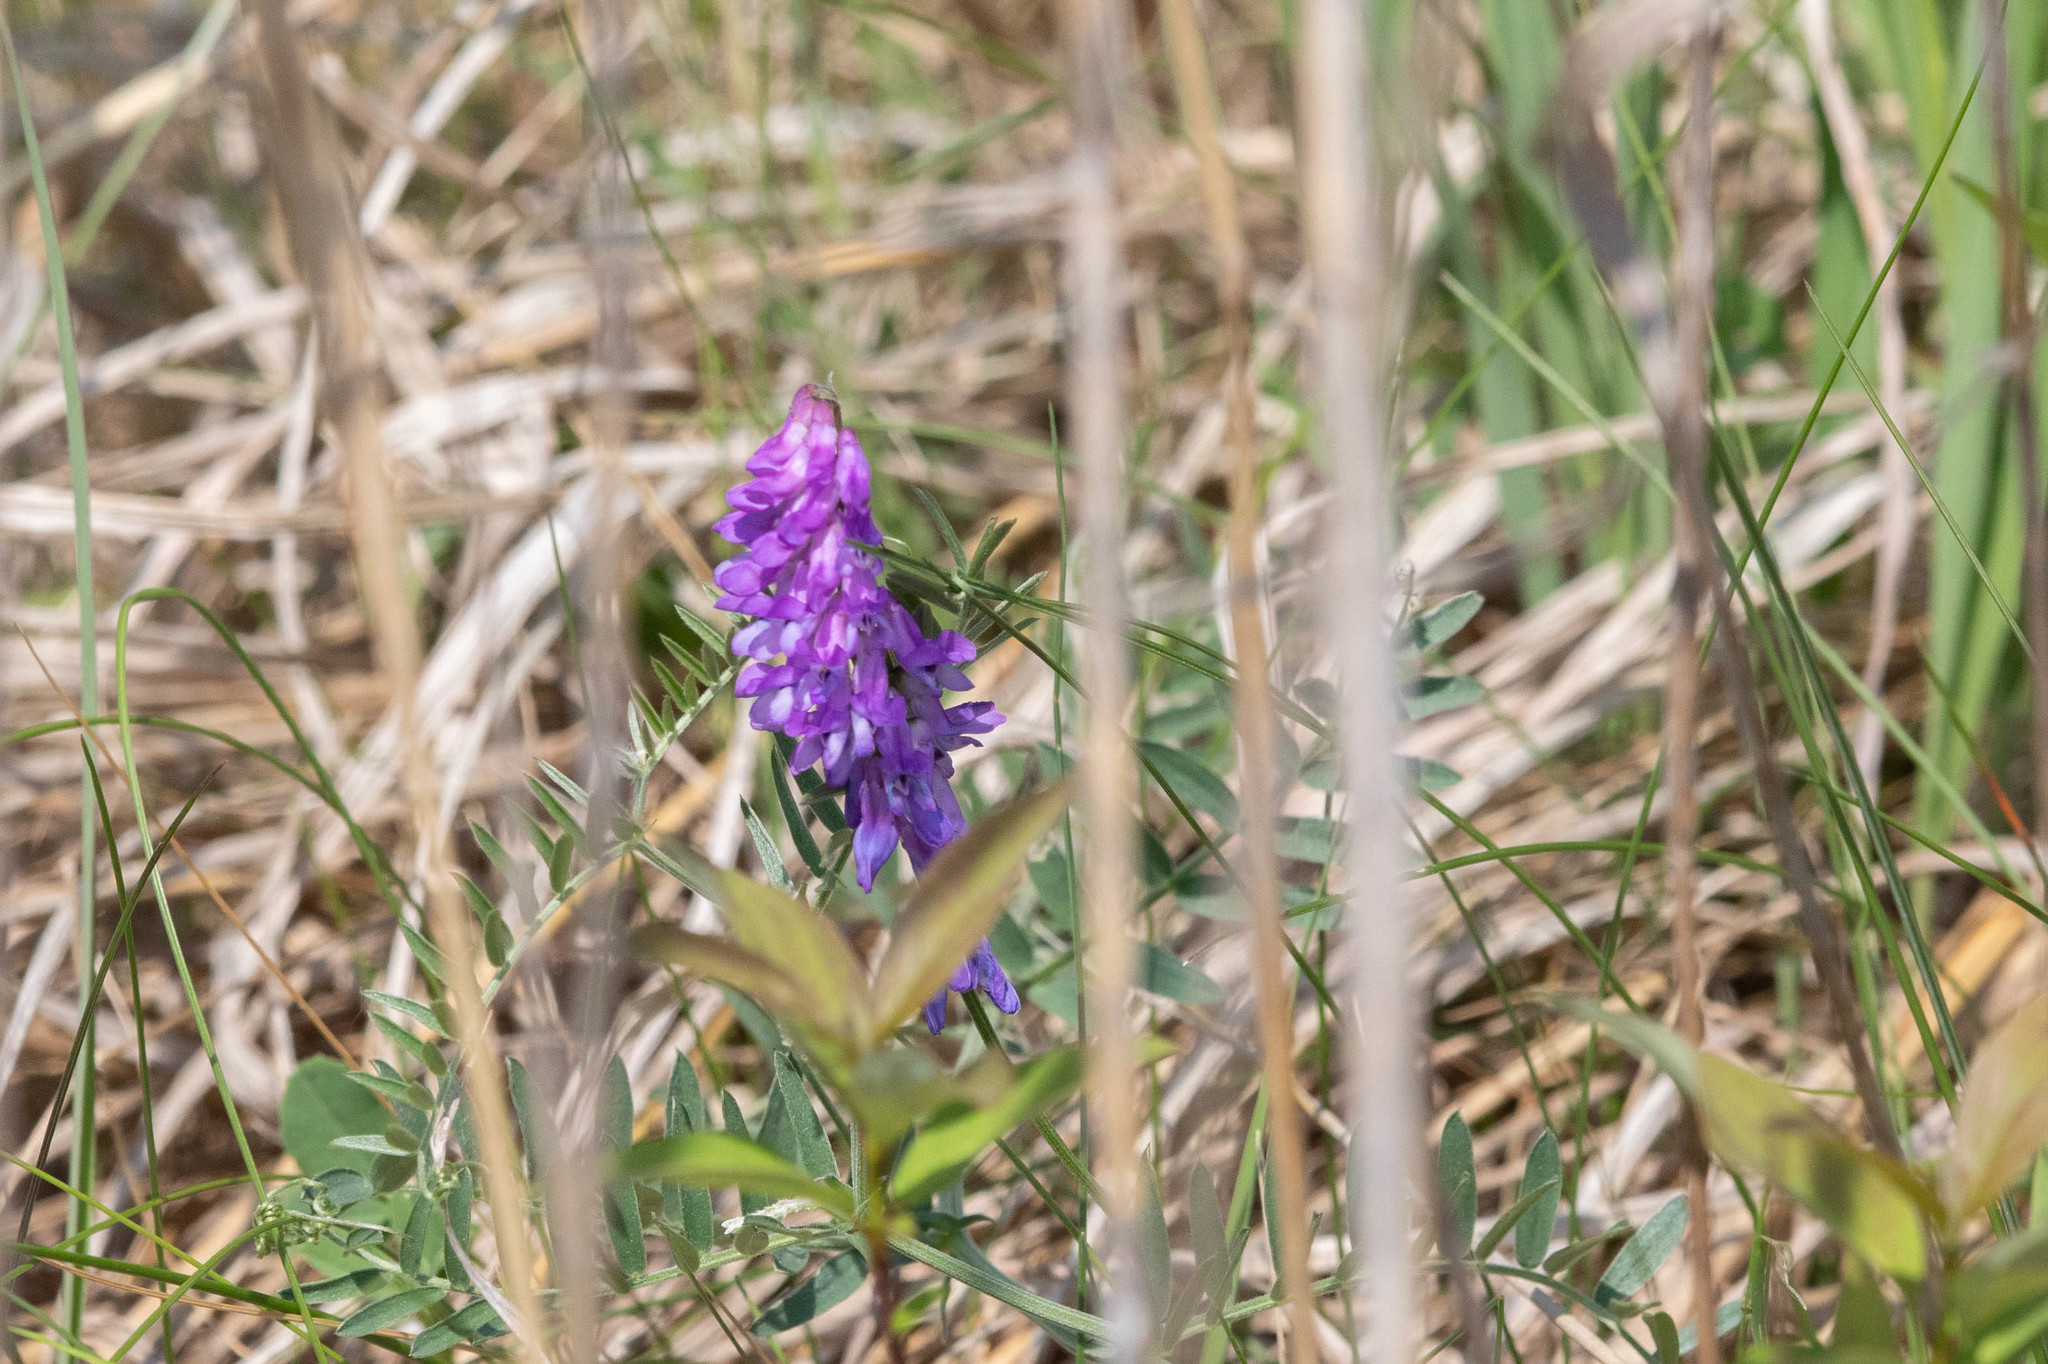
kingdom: Plantae
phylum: Tracheophyta
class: Magnoliopsida
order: Fabales
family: Fabaceae
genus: Vicia
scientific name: Vicia cracca
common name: Bird vetch
